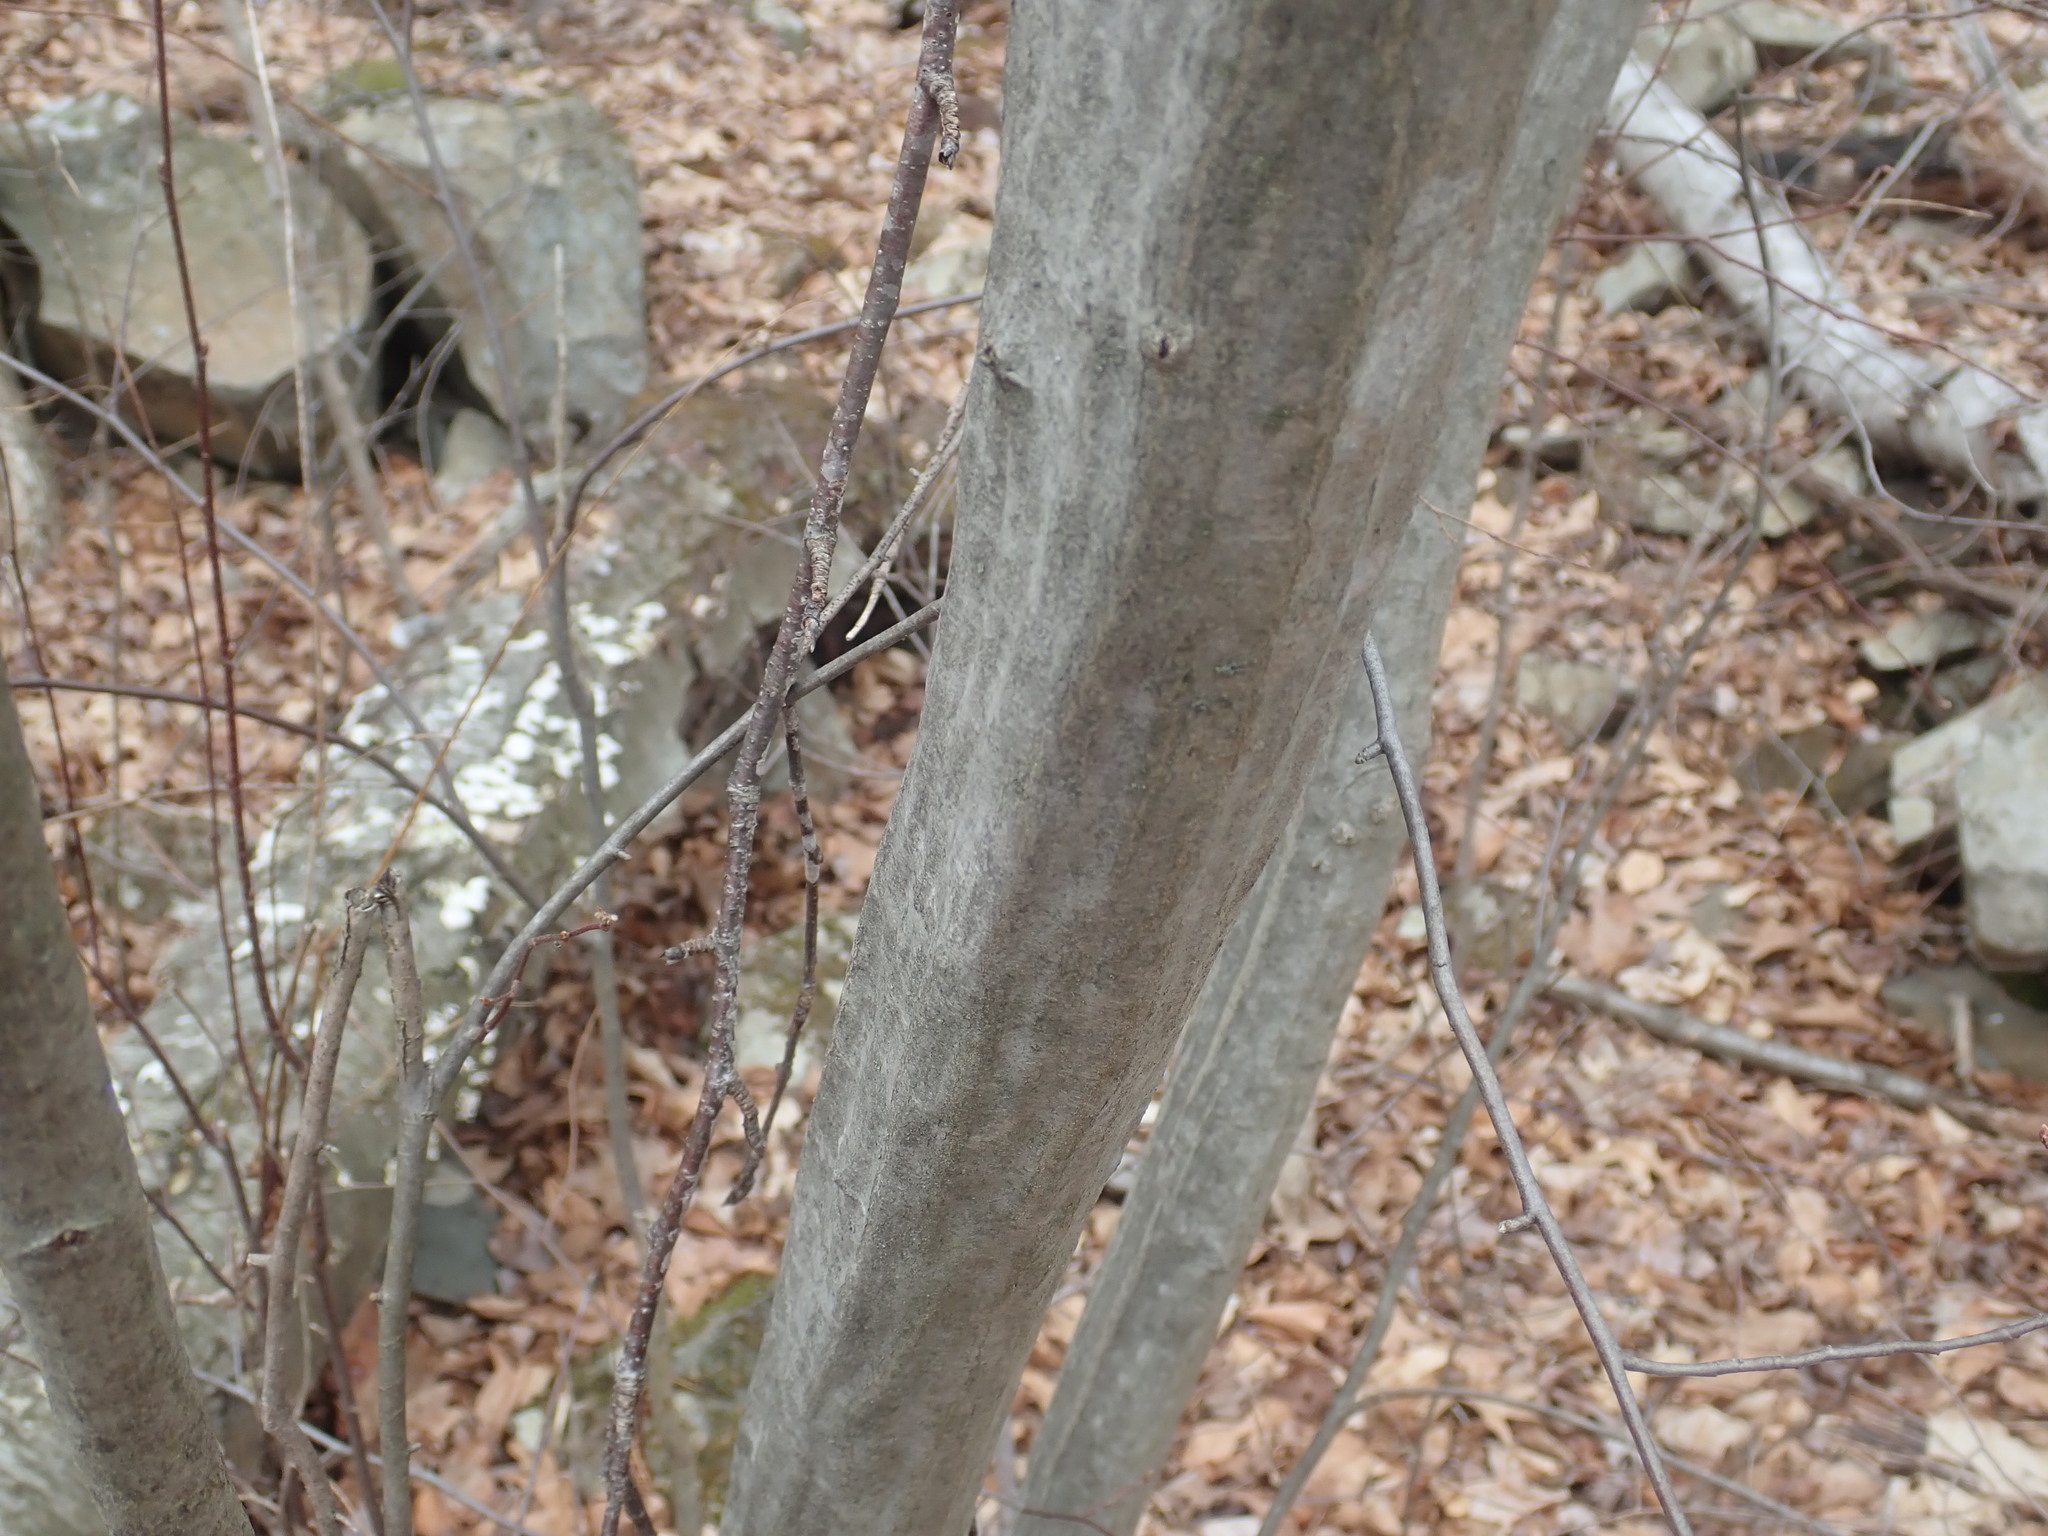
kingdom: Plantae
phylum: Tracheophyta
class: Magnoliopsida
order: Fagales
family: Betulaceae
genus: Carpinus
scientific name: Carpinus caroliniana
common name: American hornbeam
